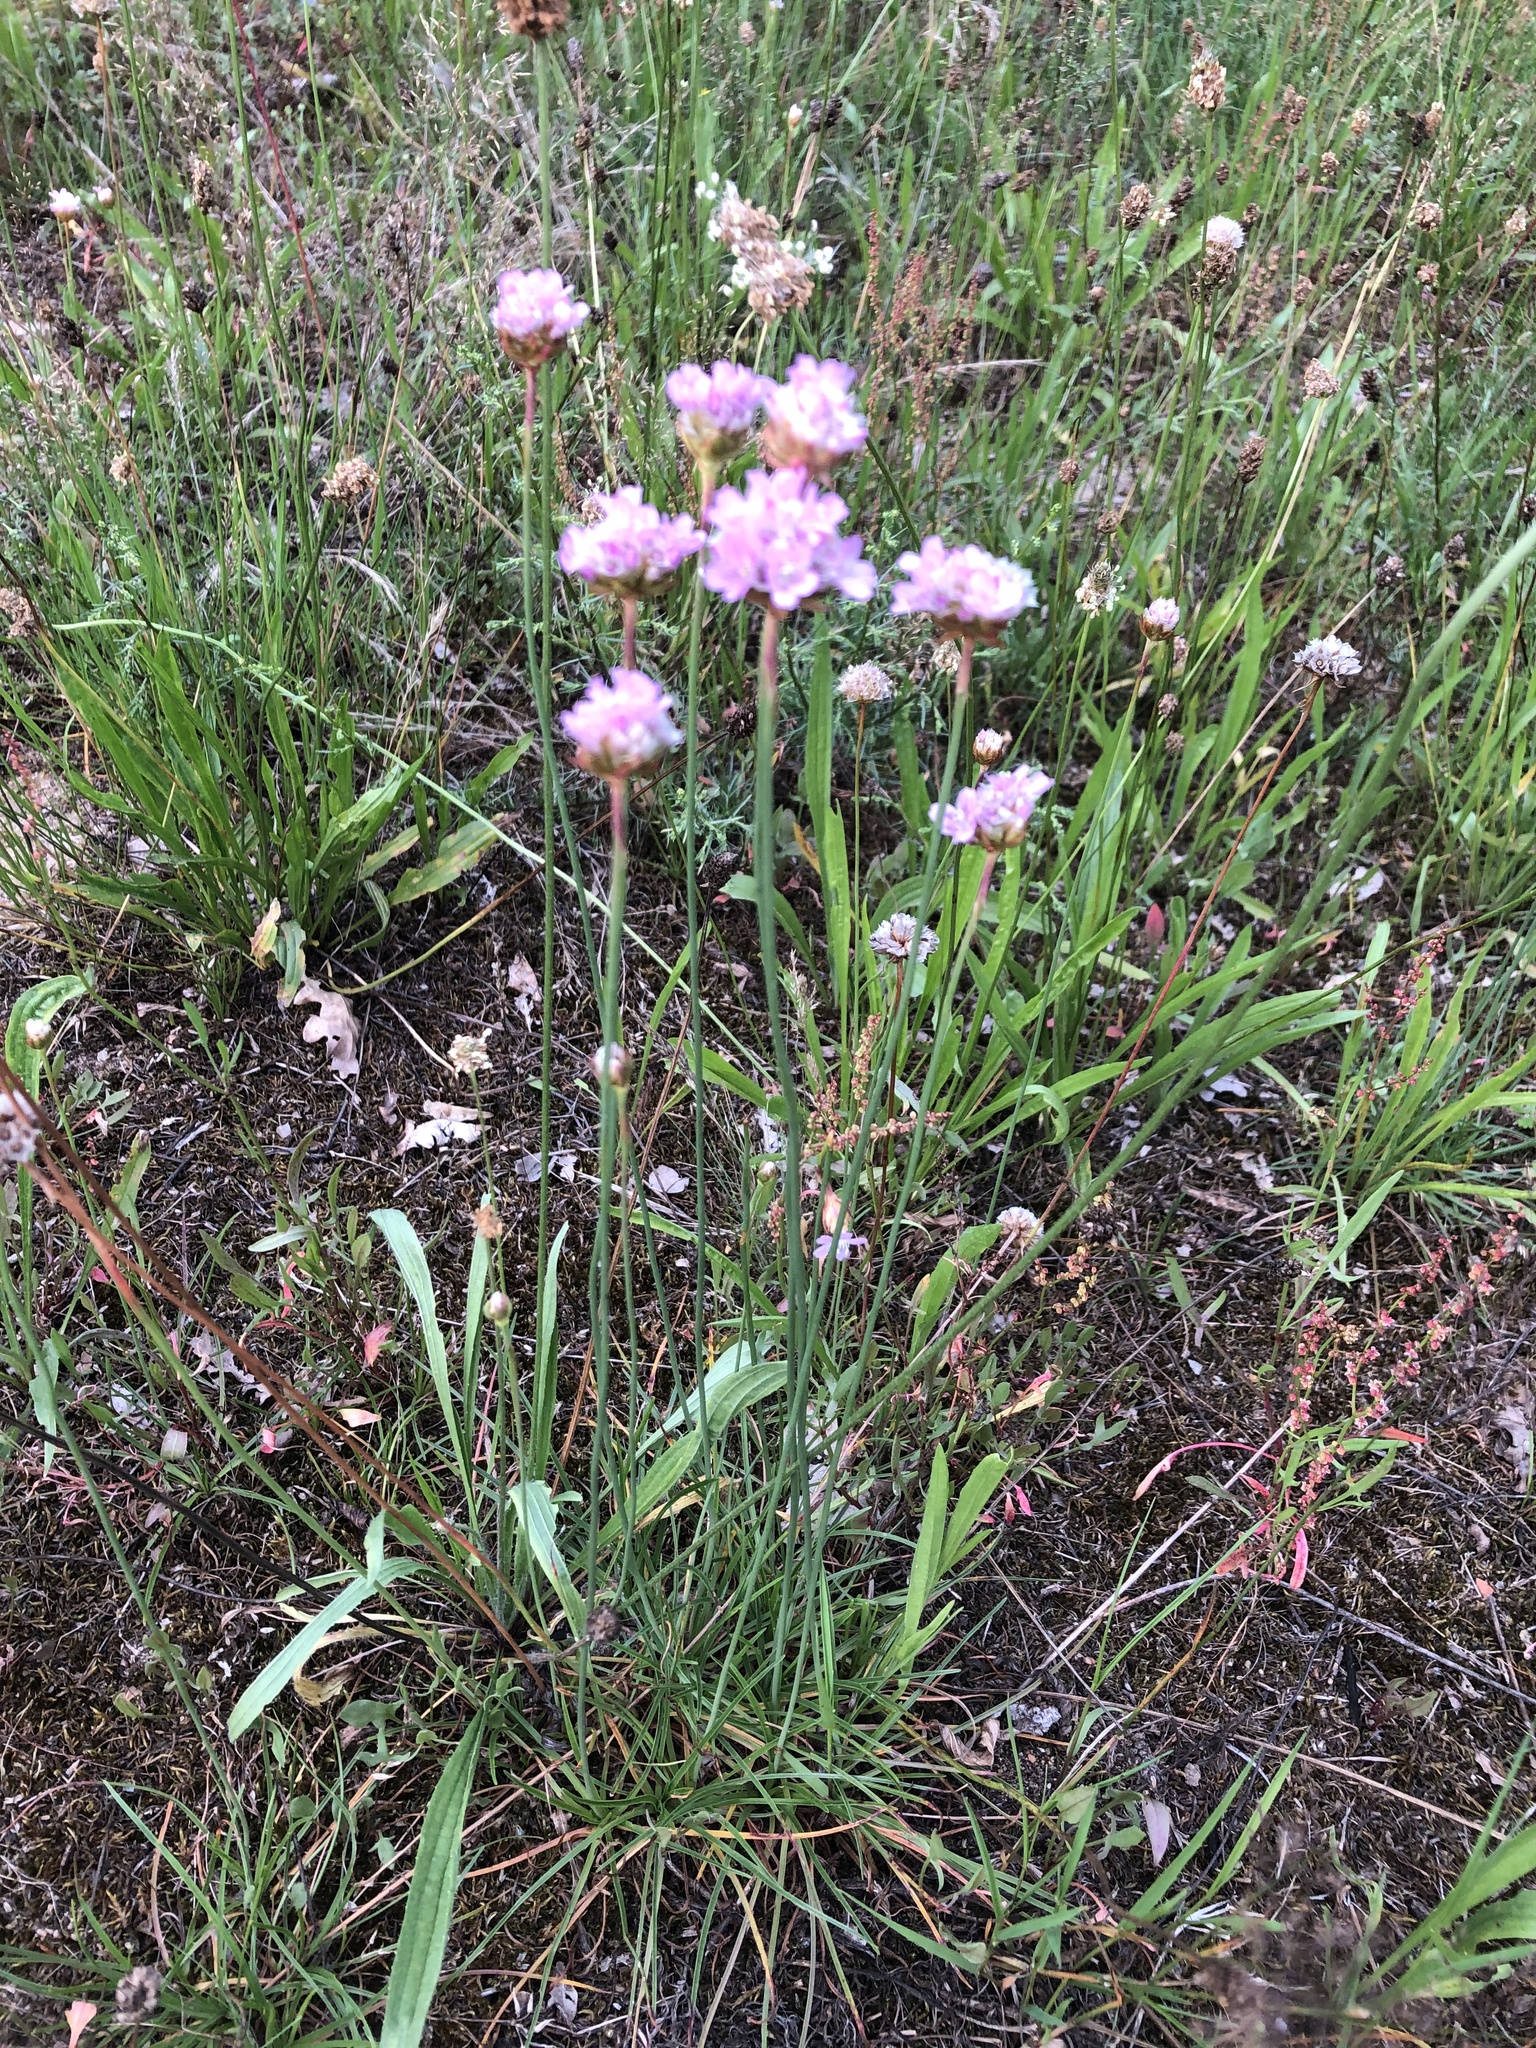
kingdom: Plantae
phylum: Tracheophyta
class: Magnoliopsida
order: Caryophyllales
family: Plumbaginaceae
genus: Armeria
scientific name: Armeria maritima
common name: Thrift
